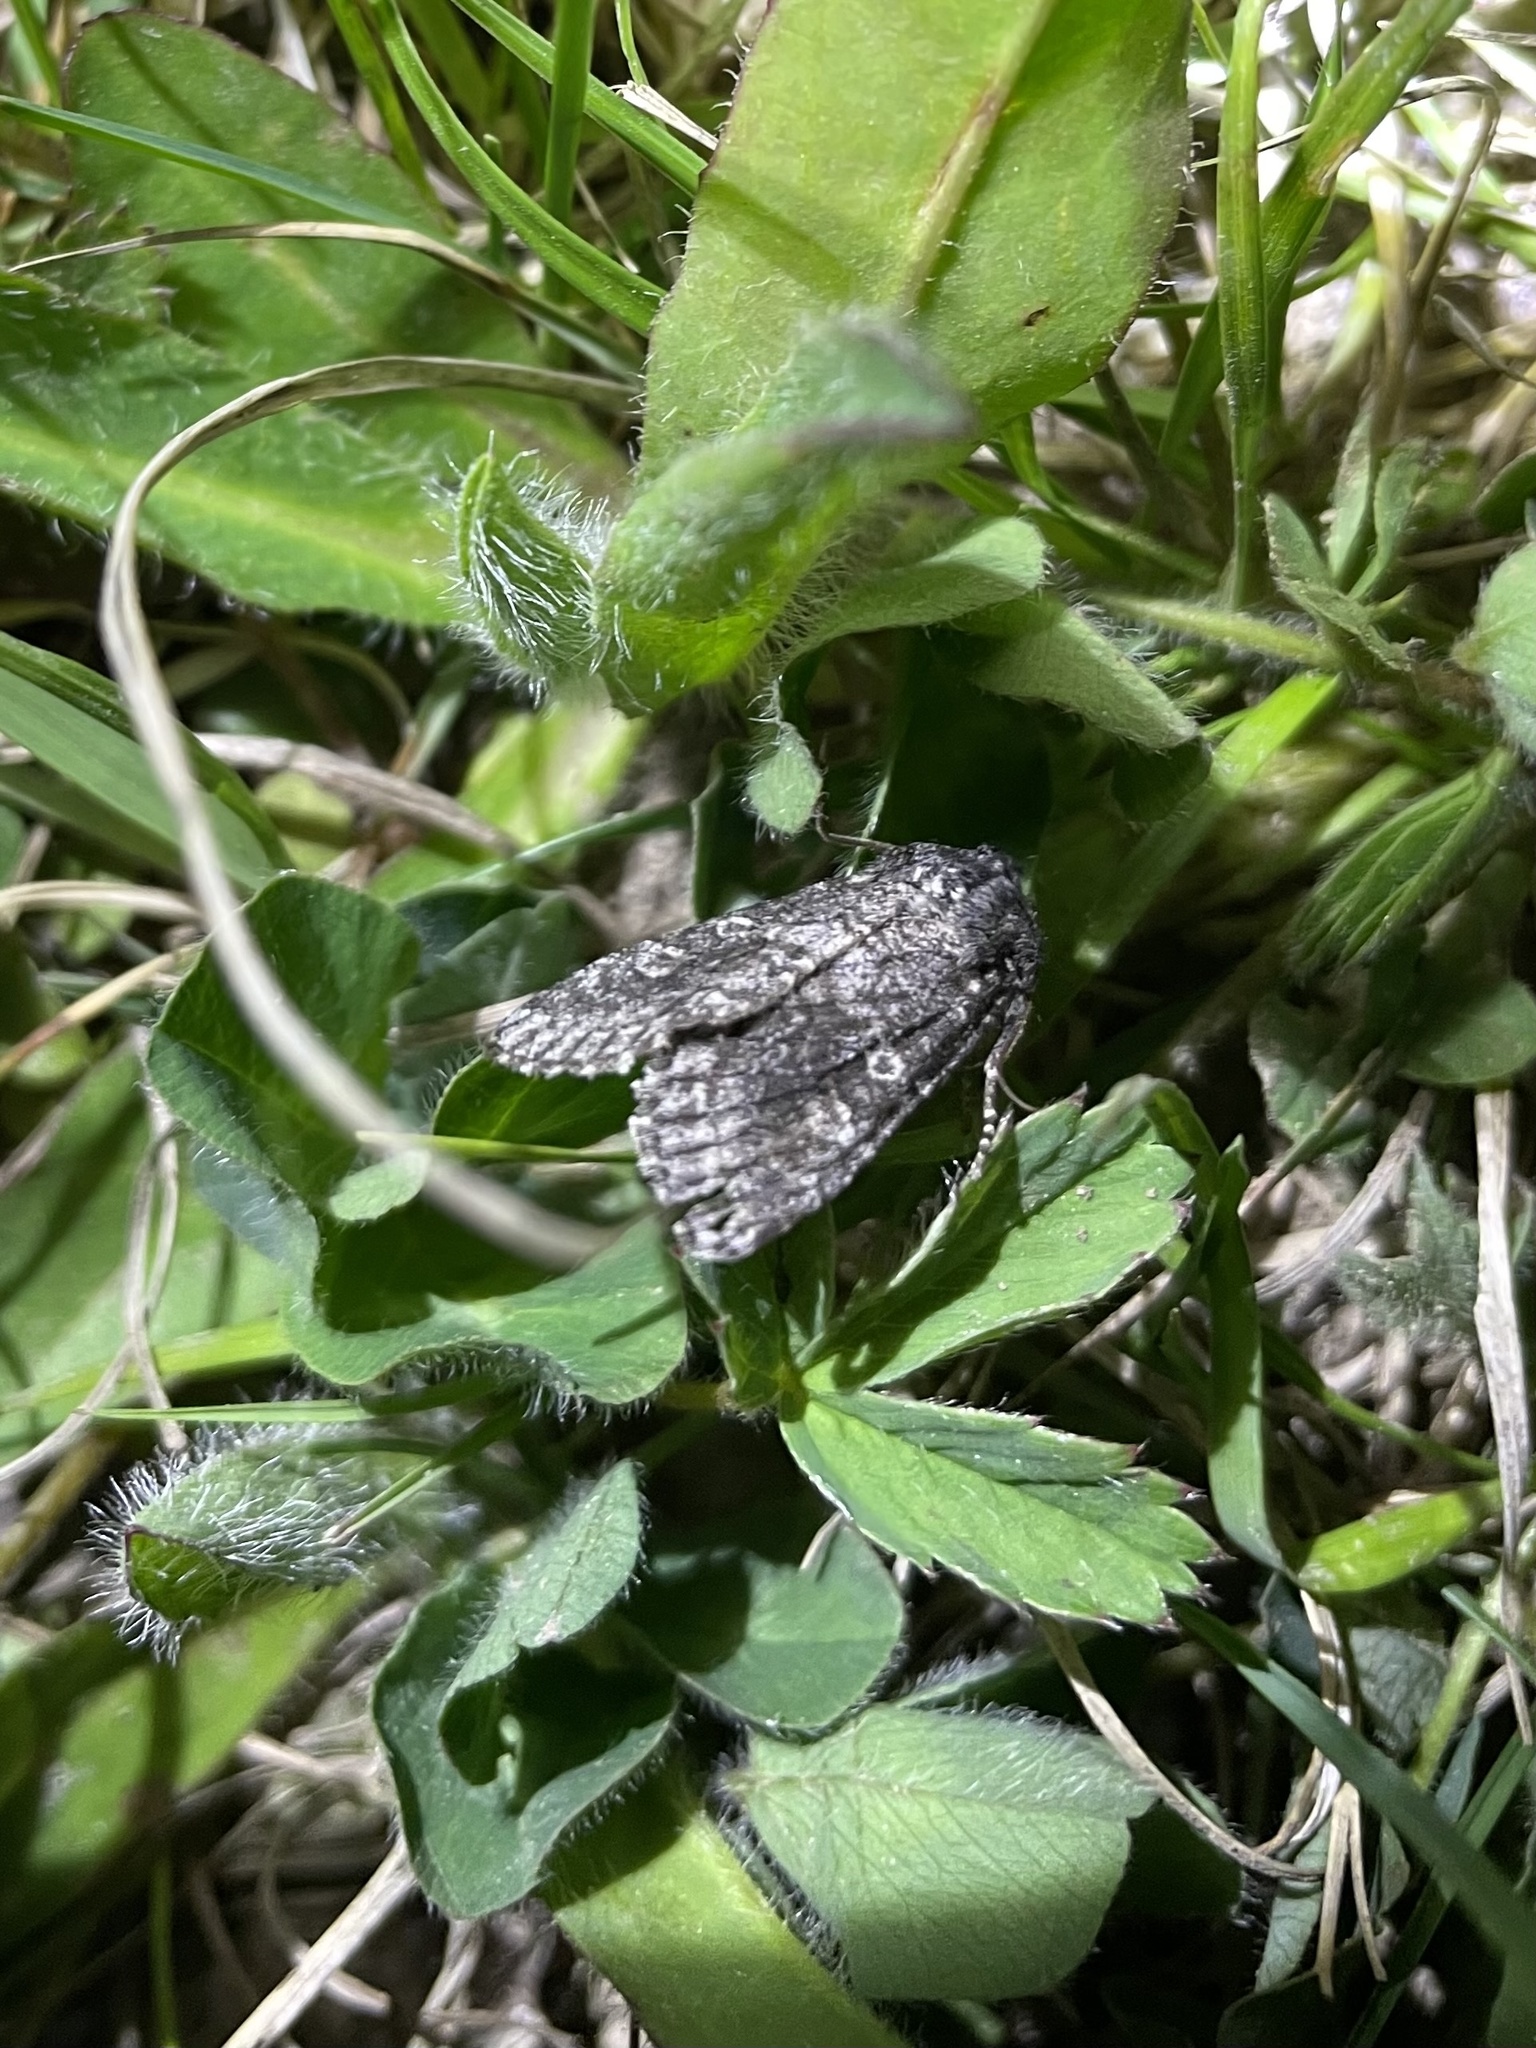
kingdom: Animalia
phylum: Arthropoda
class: Insecta
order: Lepidoptera
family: Noctuidae
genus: Egira
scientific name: Egira dolosa
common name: Lined black aspen cat.
